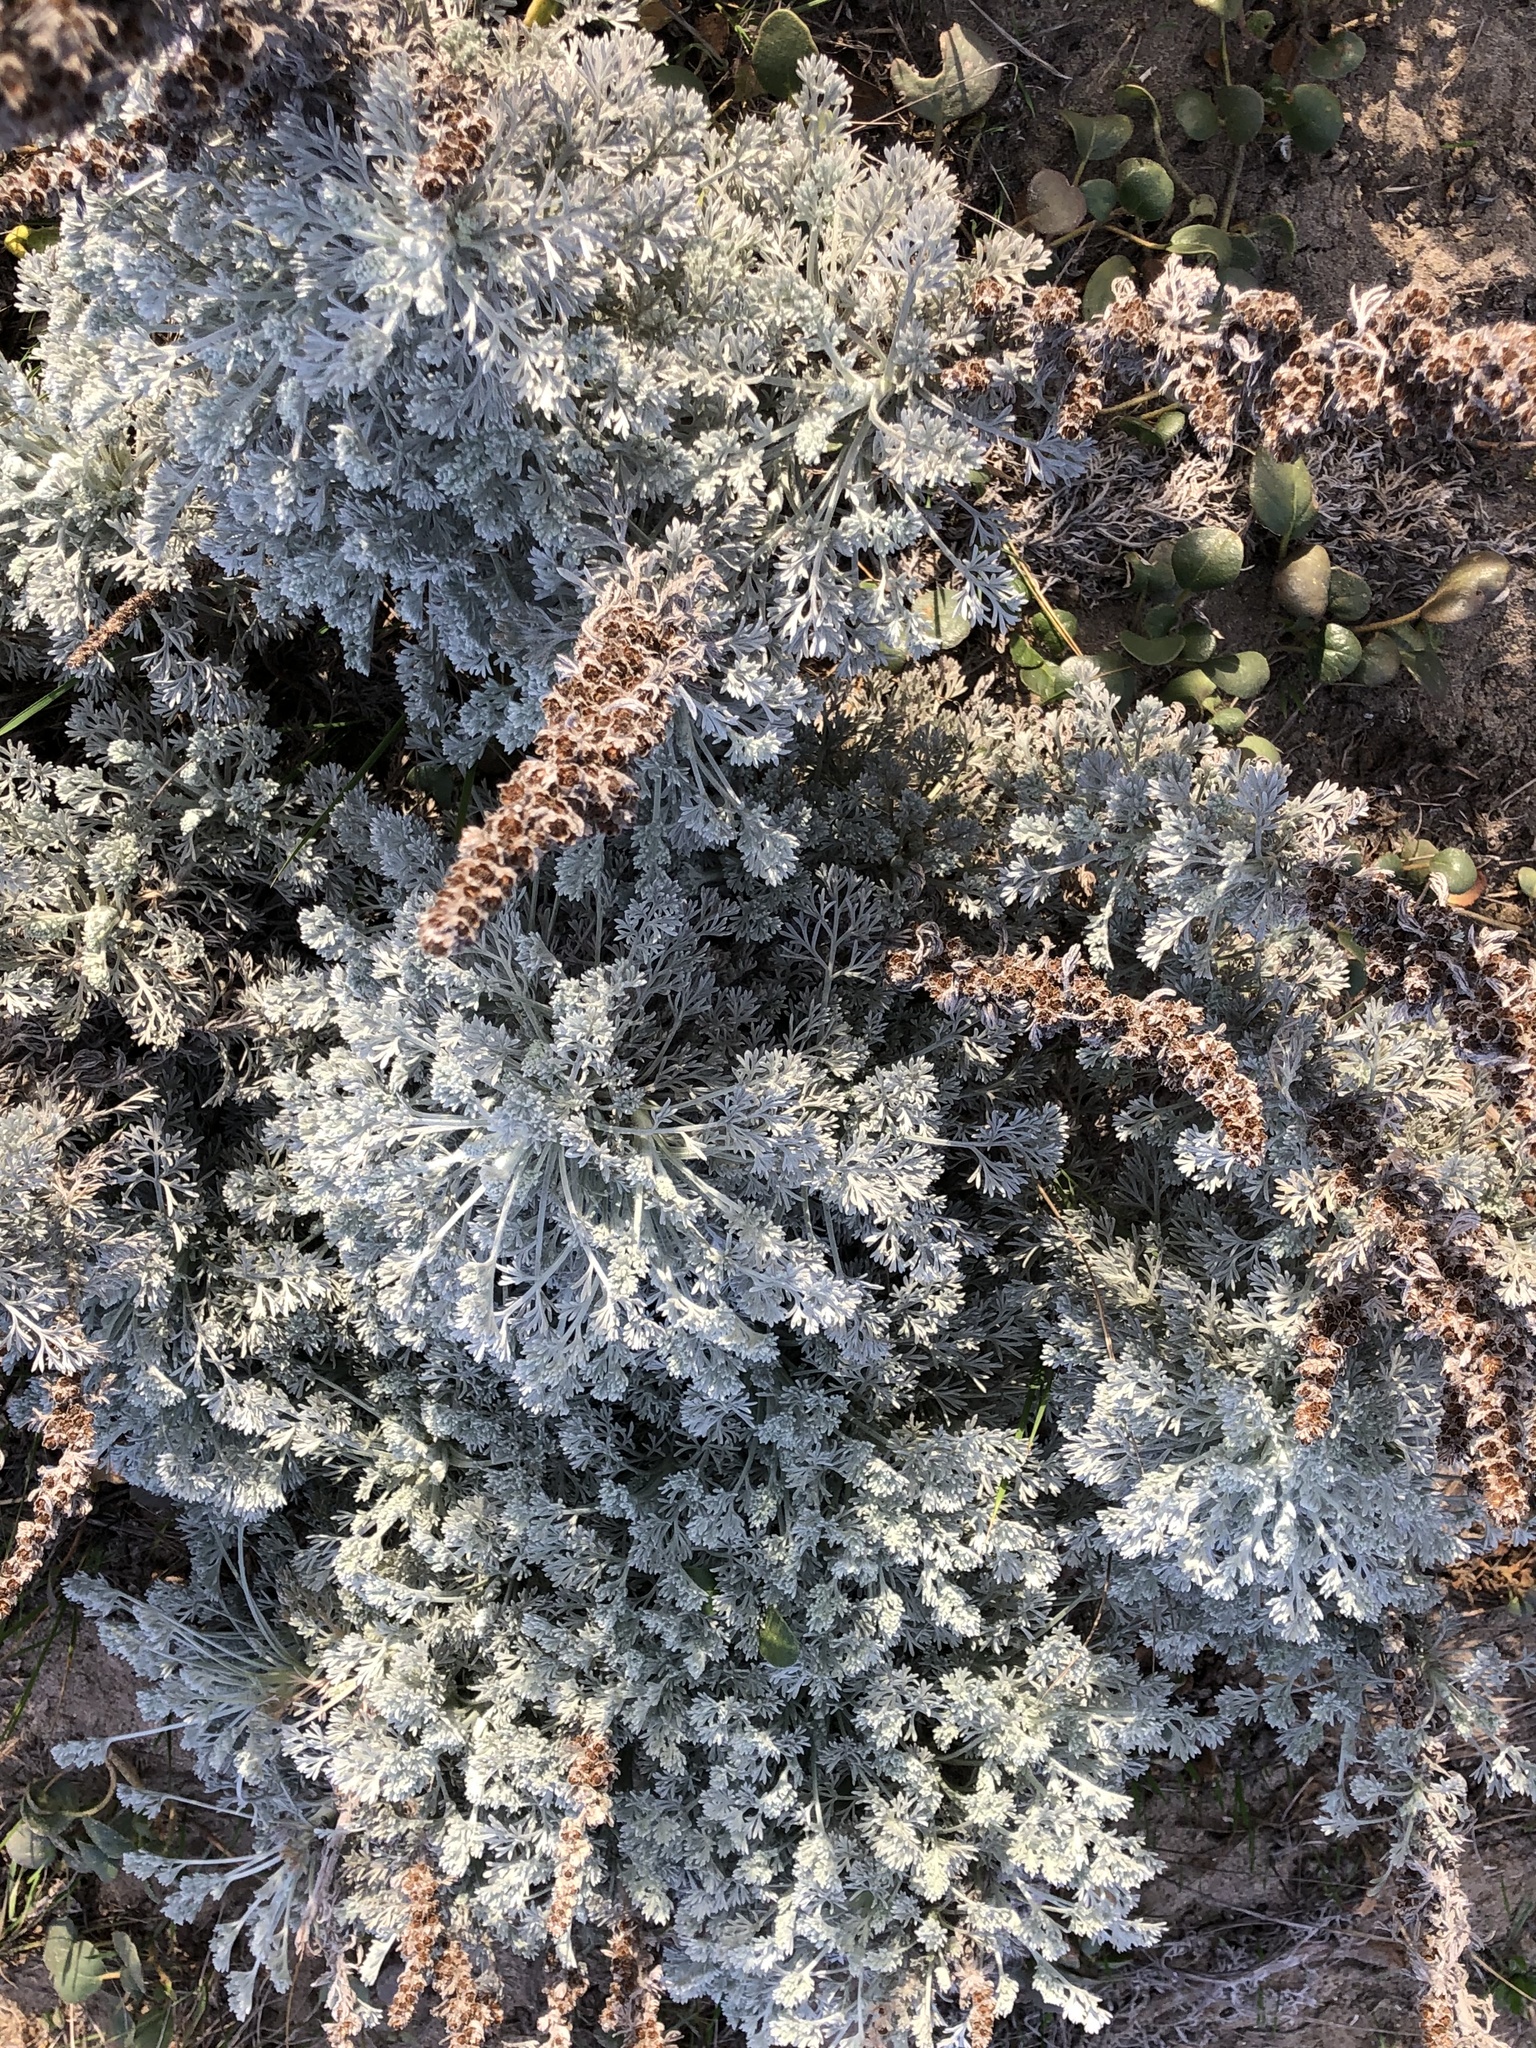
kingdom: Plantae
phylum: Tracheophyta
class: Magnoliopsida
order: Asterales
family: Asteraceae
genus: Artemisia
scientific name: Artemisia pycnocephala
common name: Coastal sagewort
